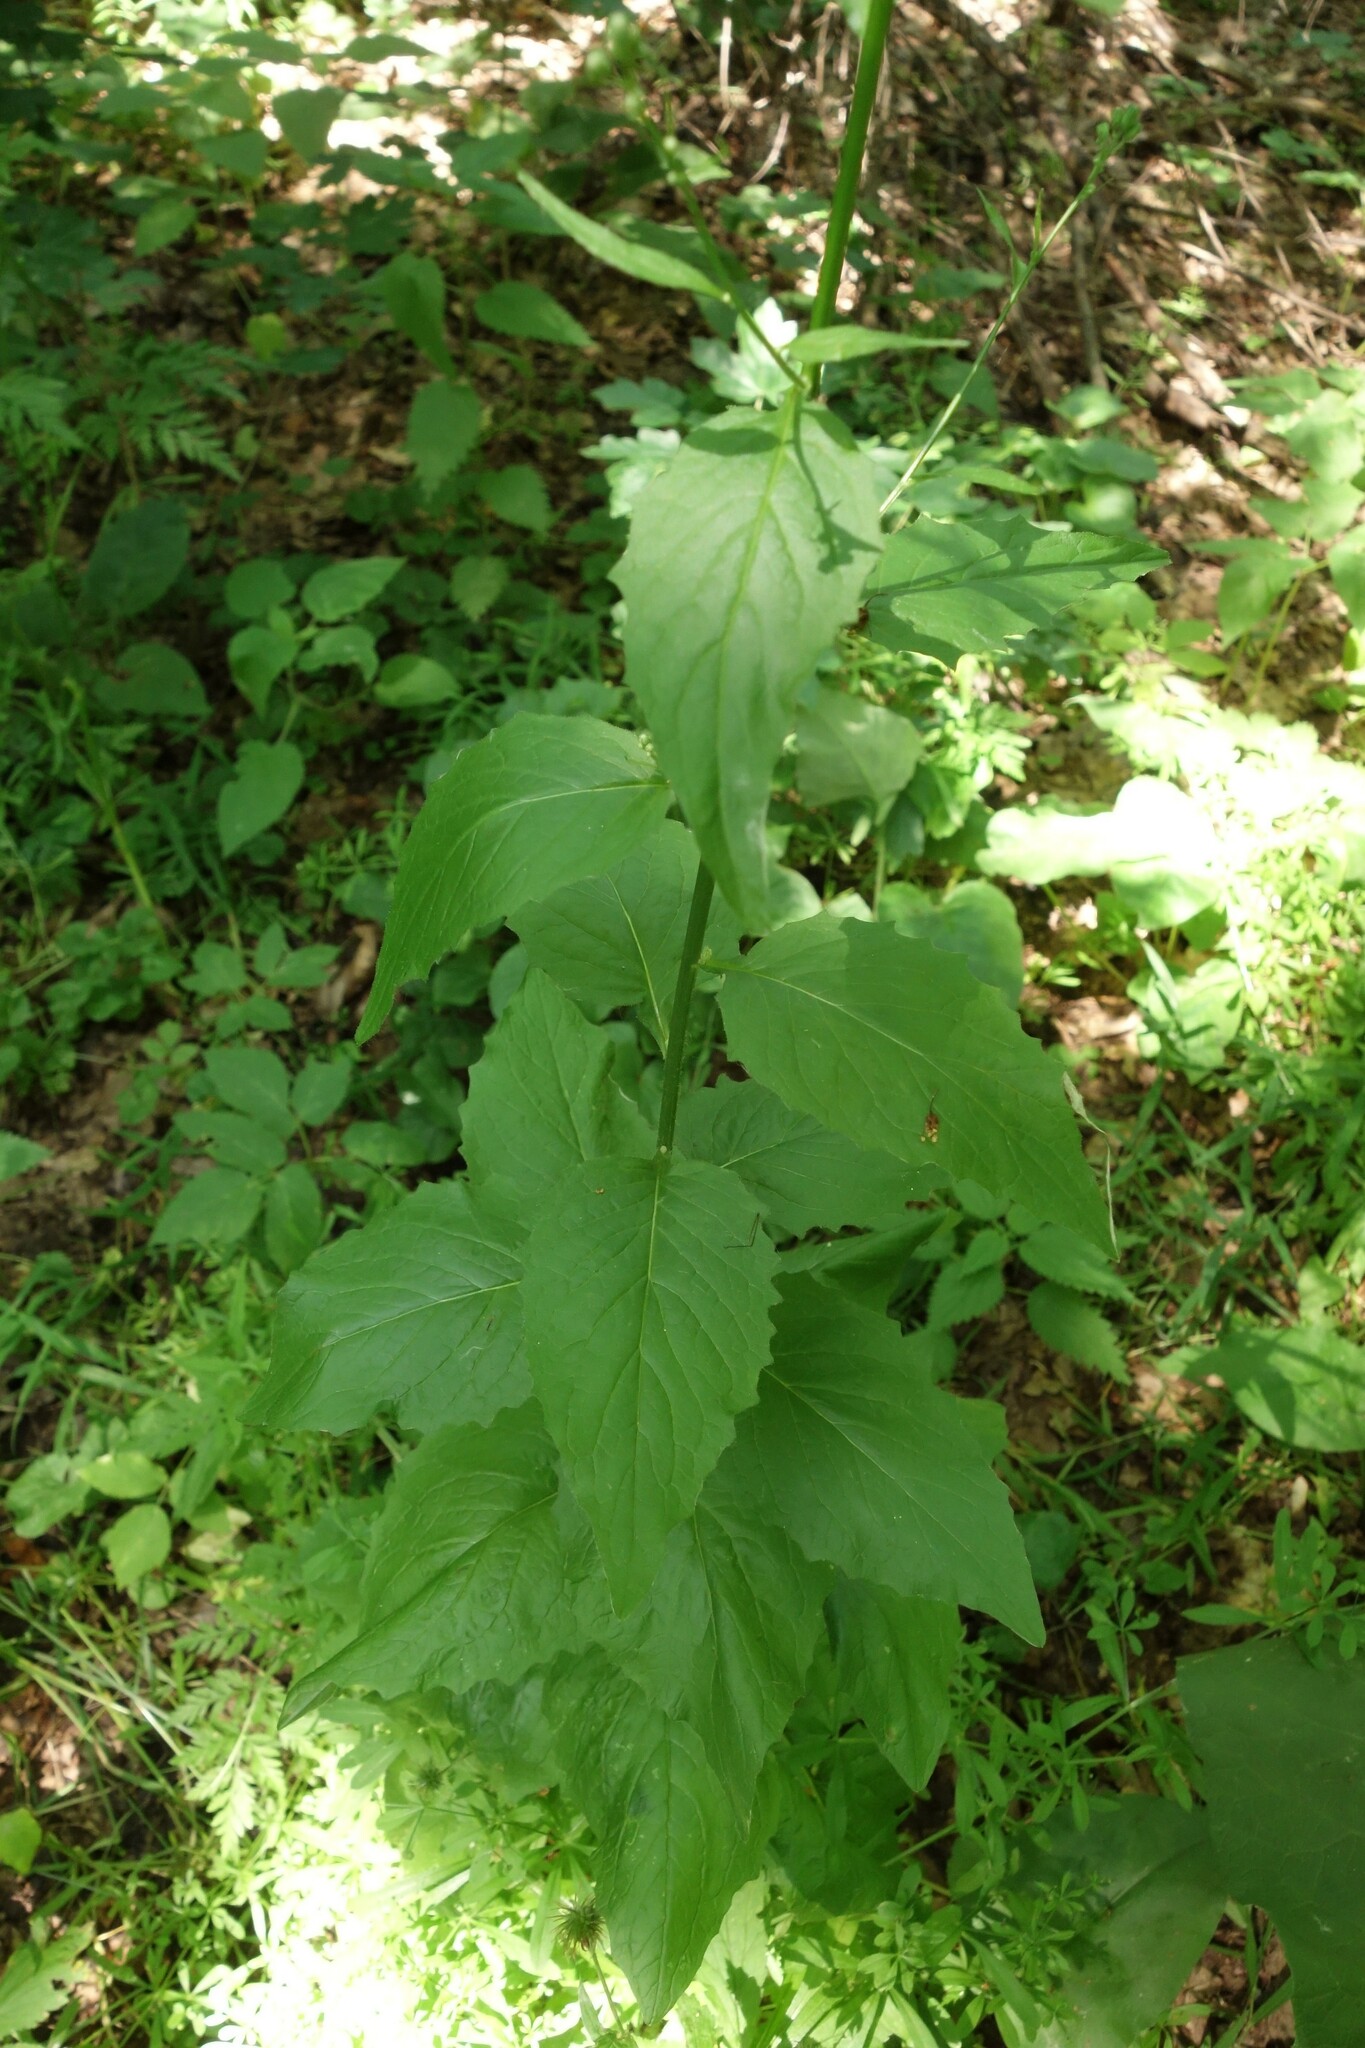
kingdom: Plantae
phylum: Tracheophyta
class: Magnoliopsida
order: Asterales
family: Asteraceae
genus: Lapsana
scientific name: Lapsana communis
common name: Nipplewort
